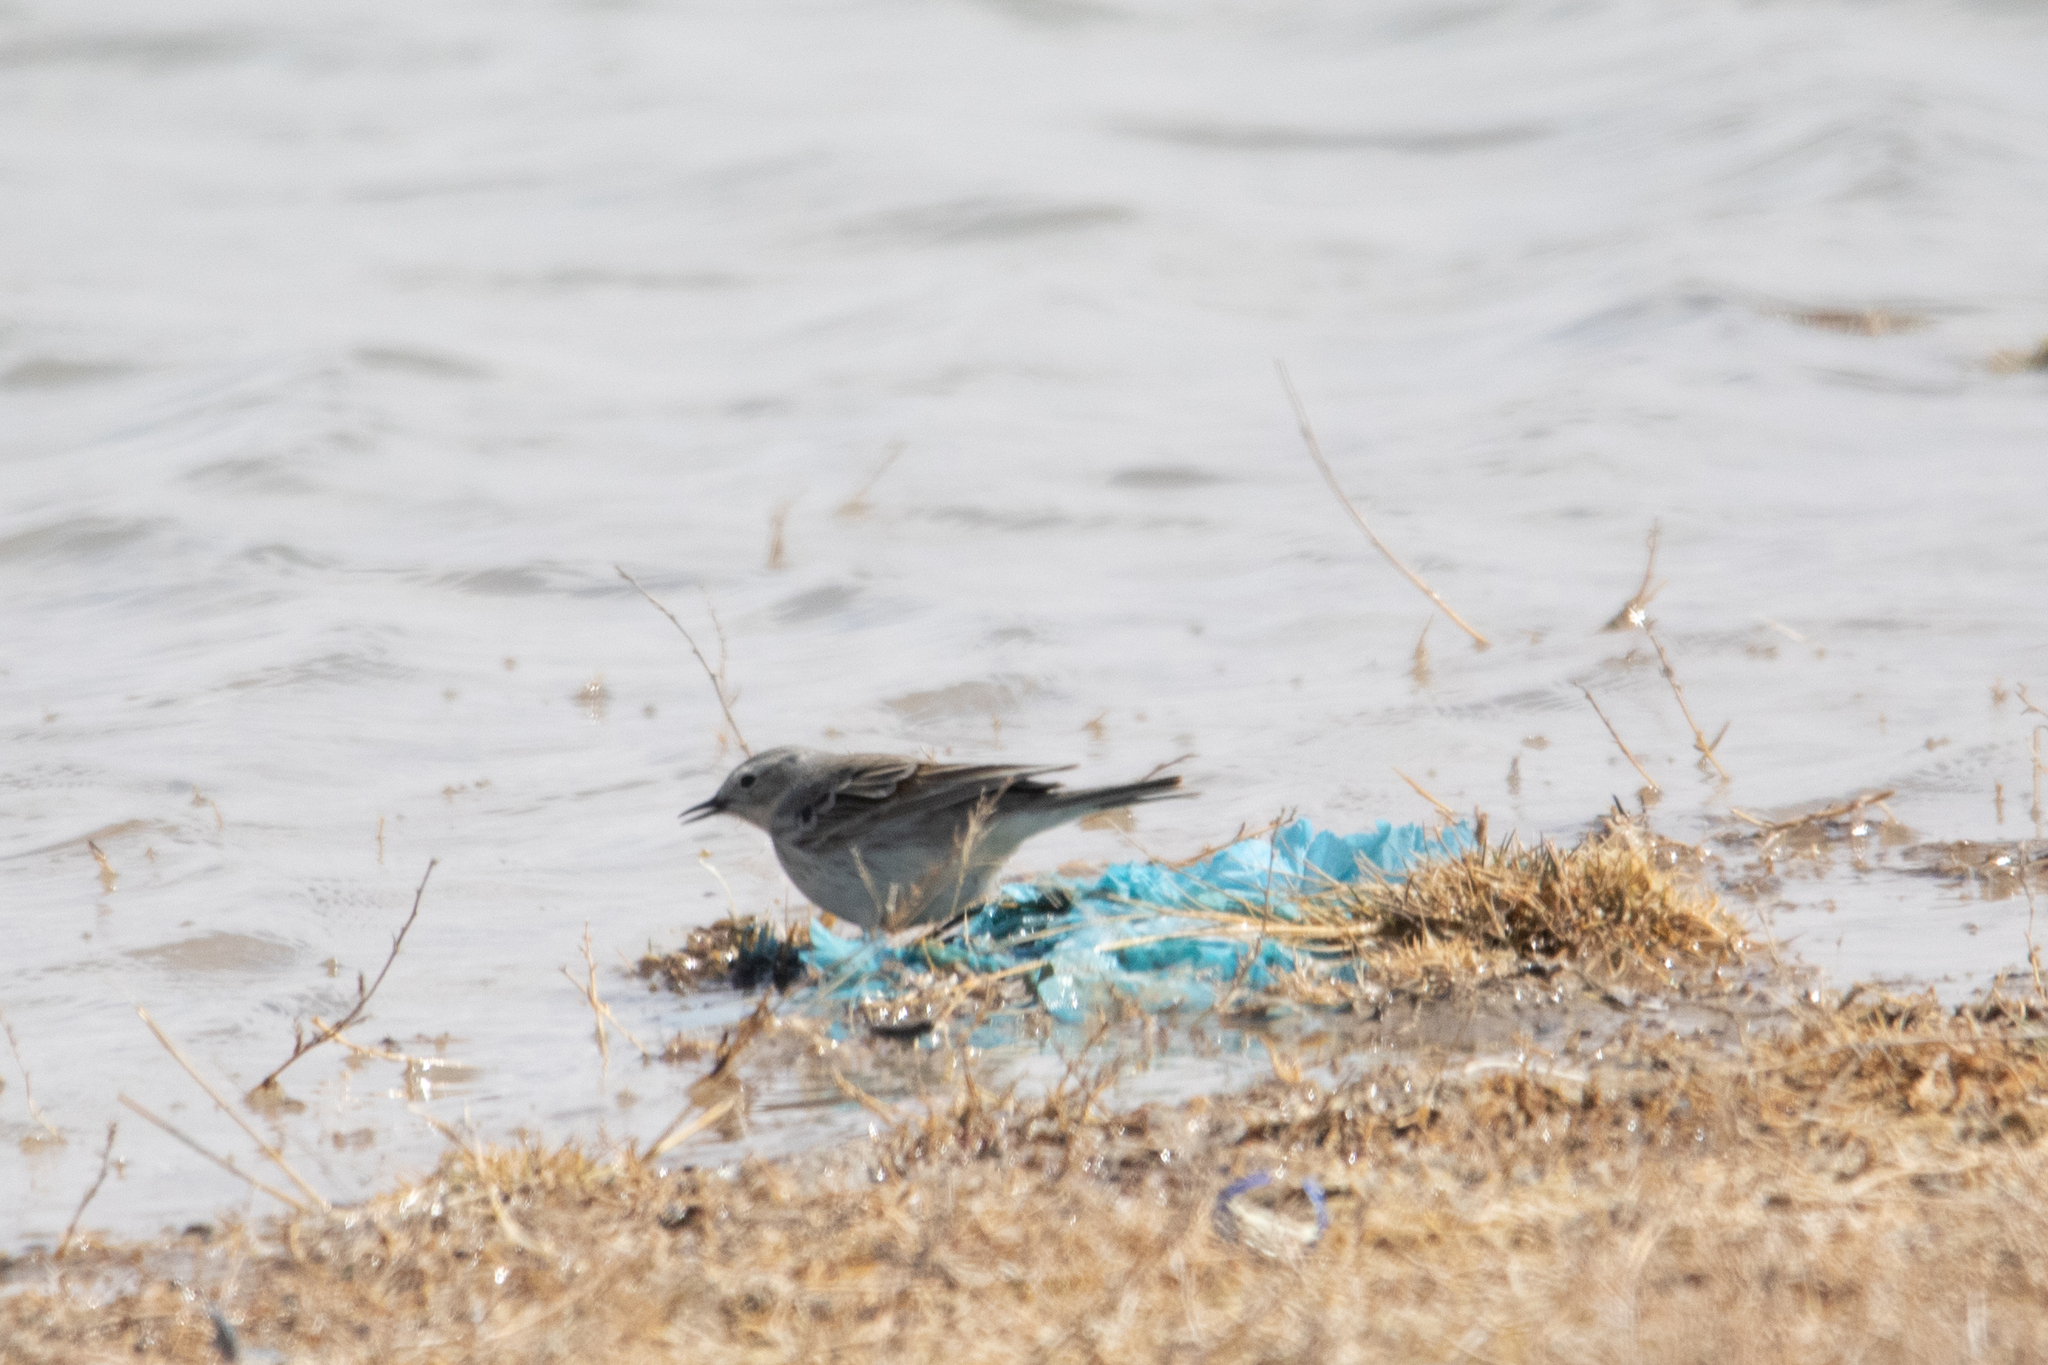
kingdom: Animalia
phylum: Chordata
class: Aves
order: Passeriformes
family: Motacillidae
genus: Anthus
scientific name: Anthus spinoletta
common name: Water pipit
